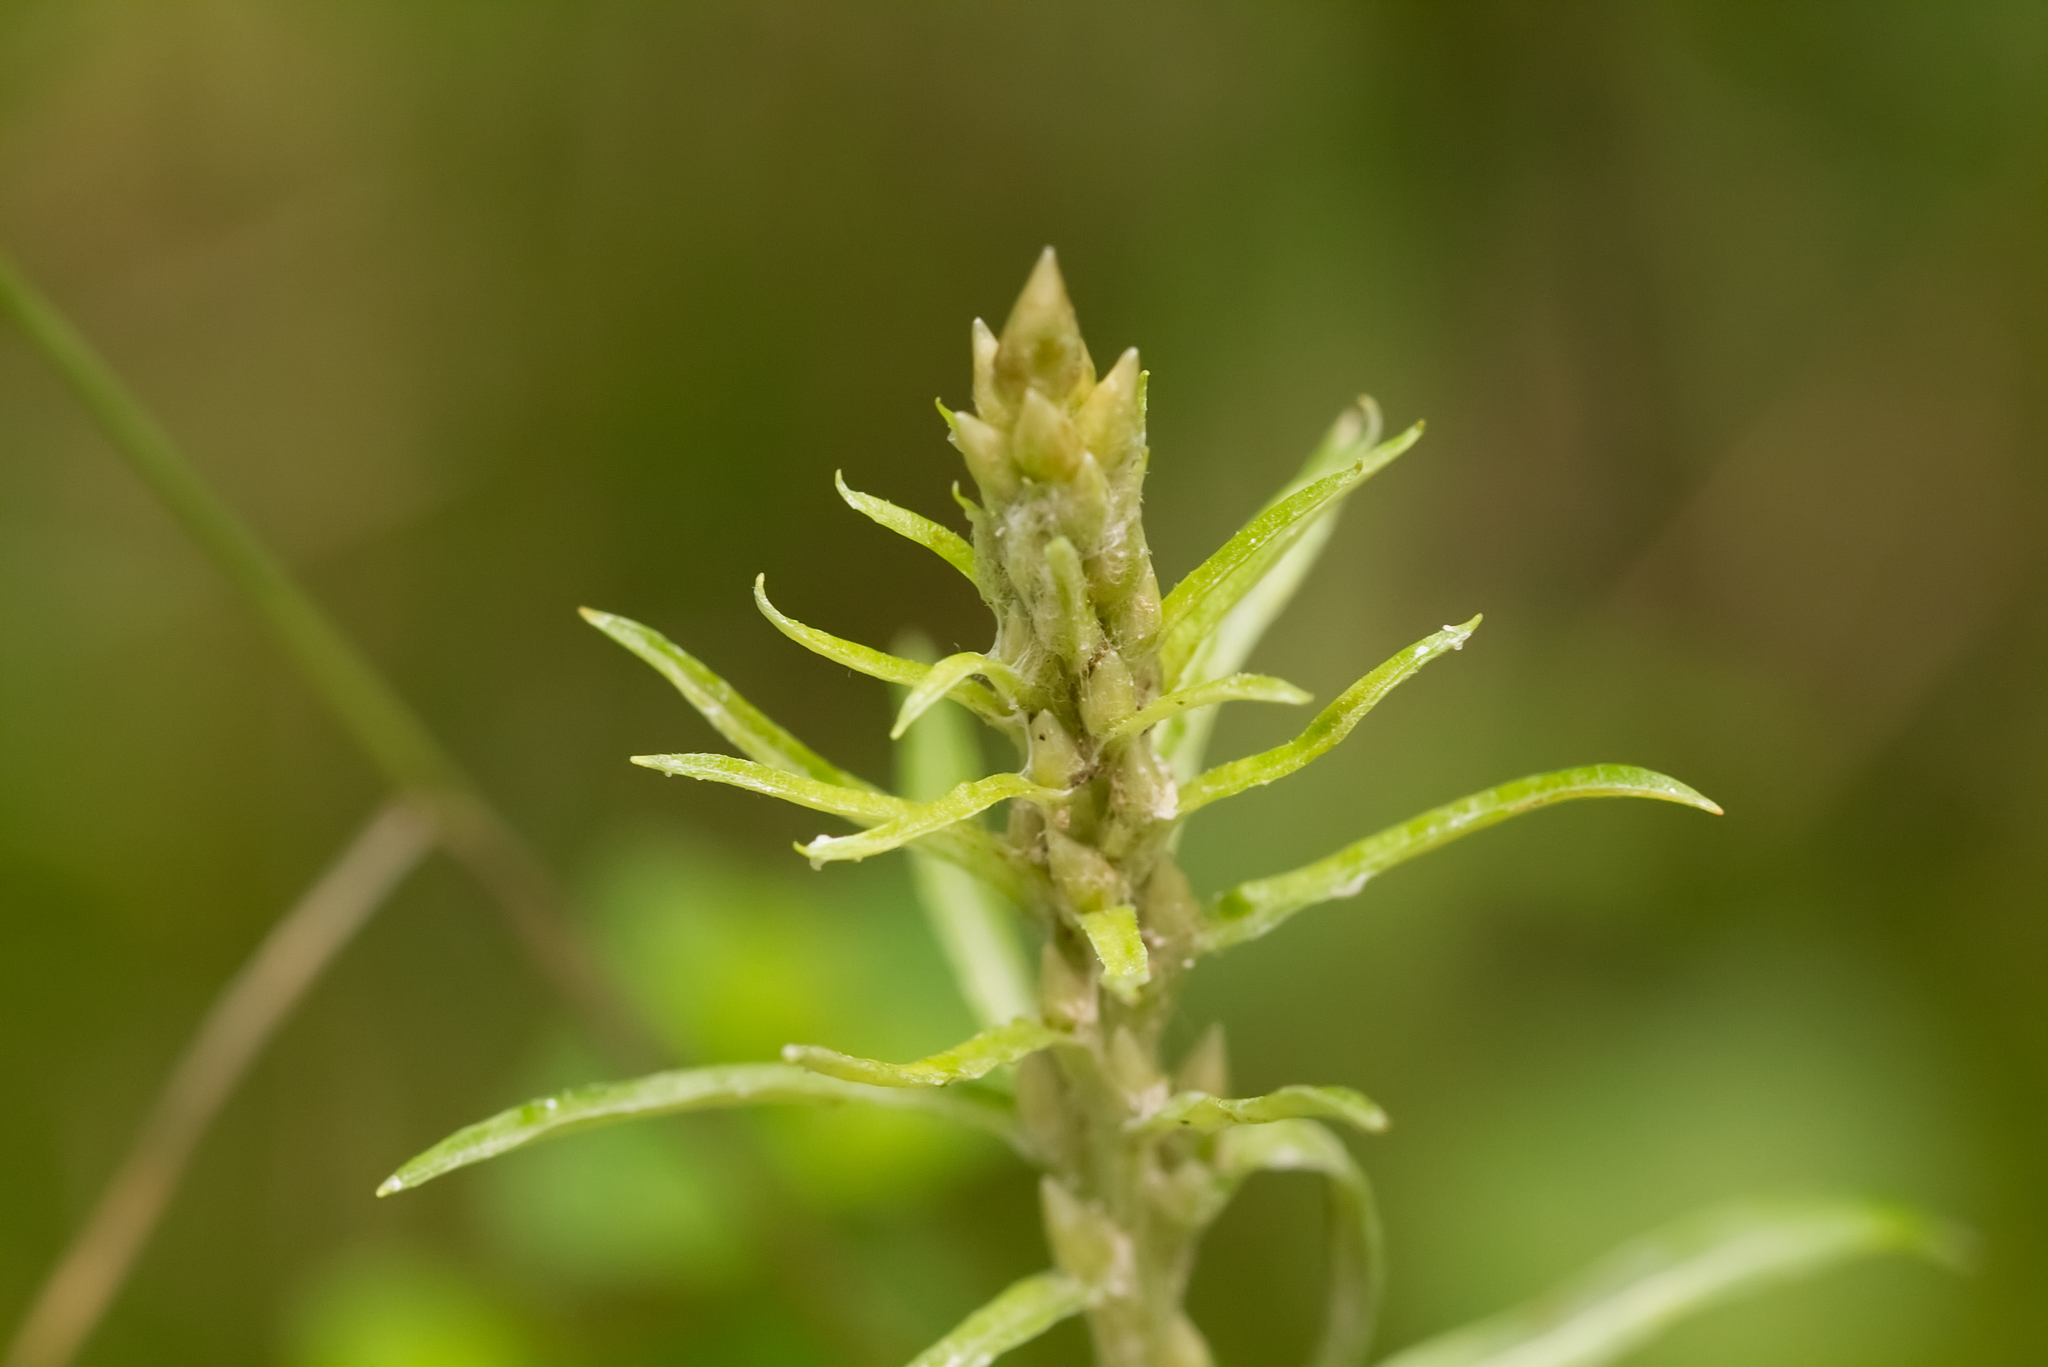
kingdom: Plantae
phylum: Tracheophyta
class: Magnoliopsida
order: Asterales
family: Asteraceae
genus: Omalotheca
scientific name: Omalotheca sylvatica
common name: Heath cudweed
